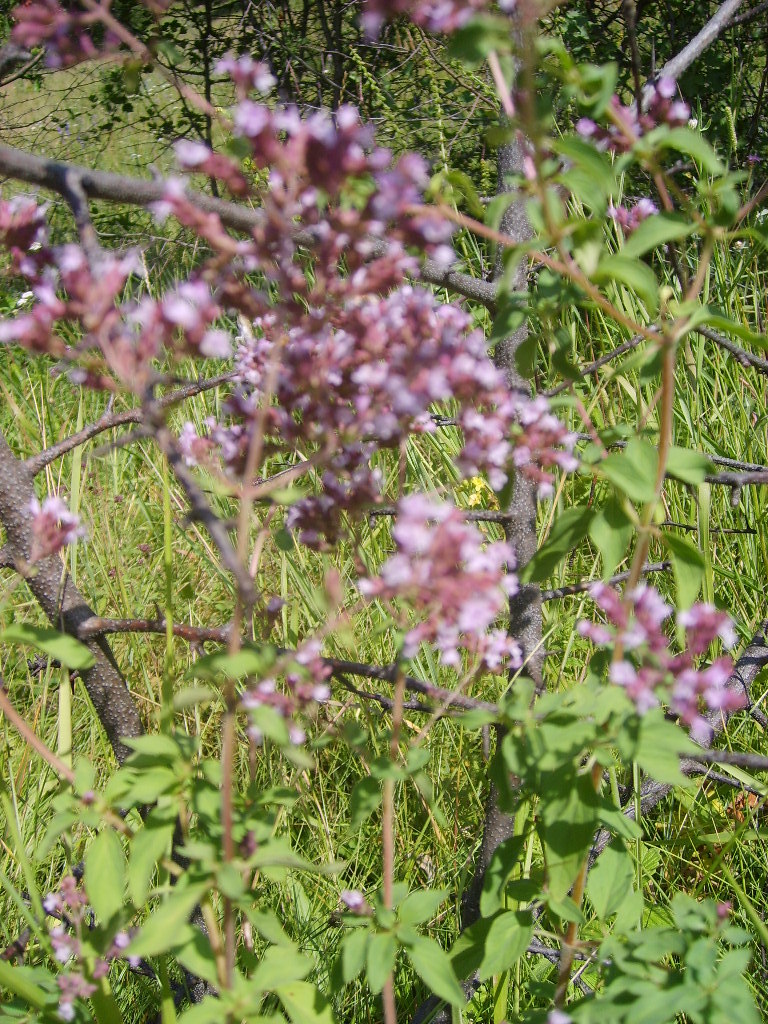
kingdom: Plantae
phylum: Tracheophyta
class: Magnoliopsida
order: Lamiales
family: Lamiaceae
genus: Origanum
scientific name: Origanum vulgare
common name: Wild marjoram
